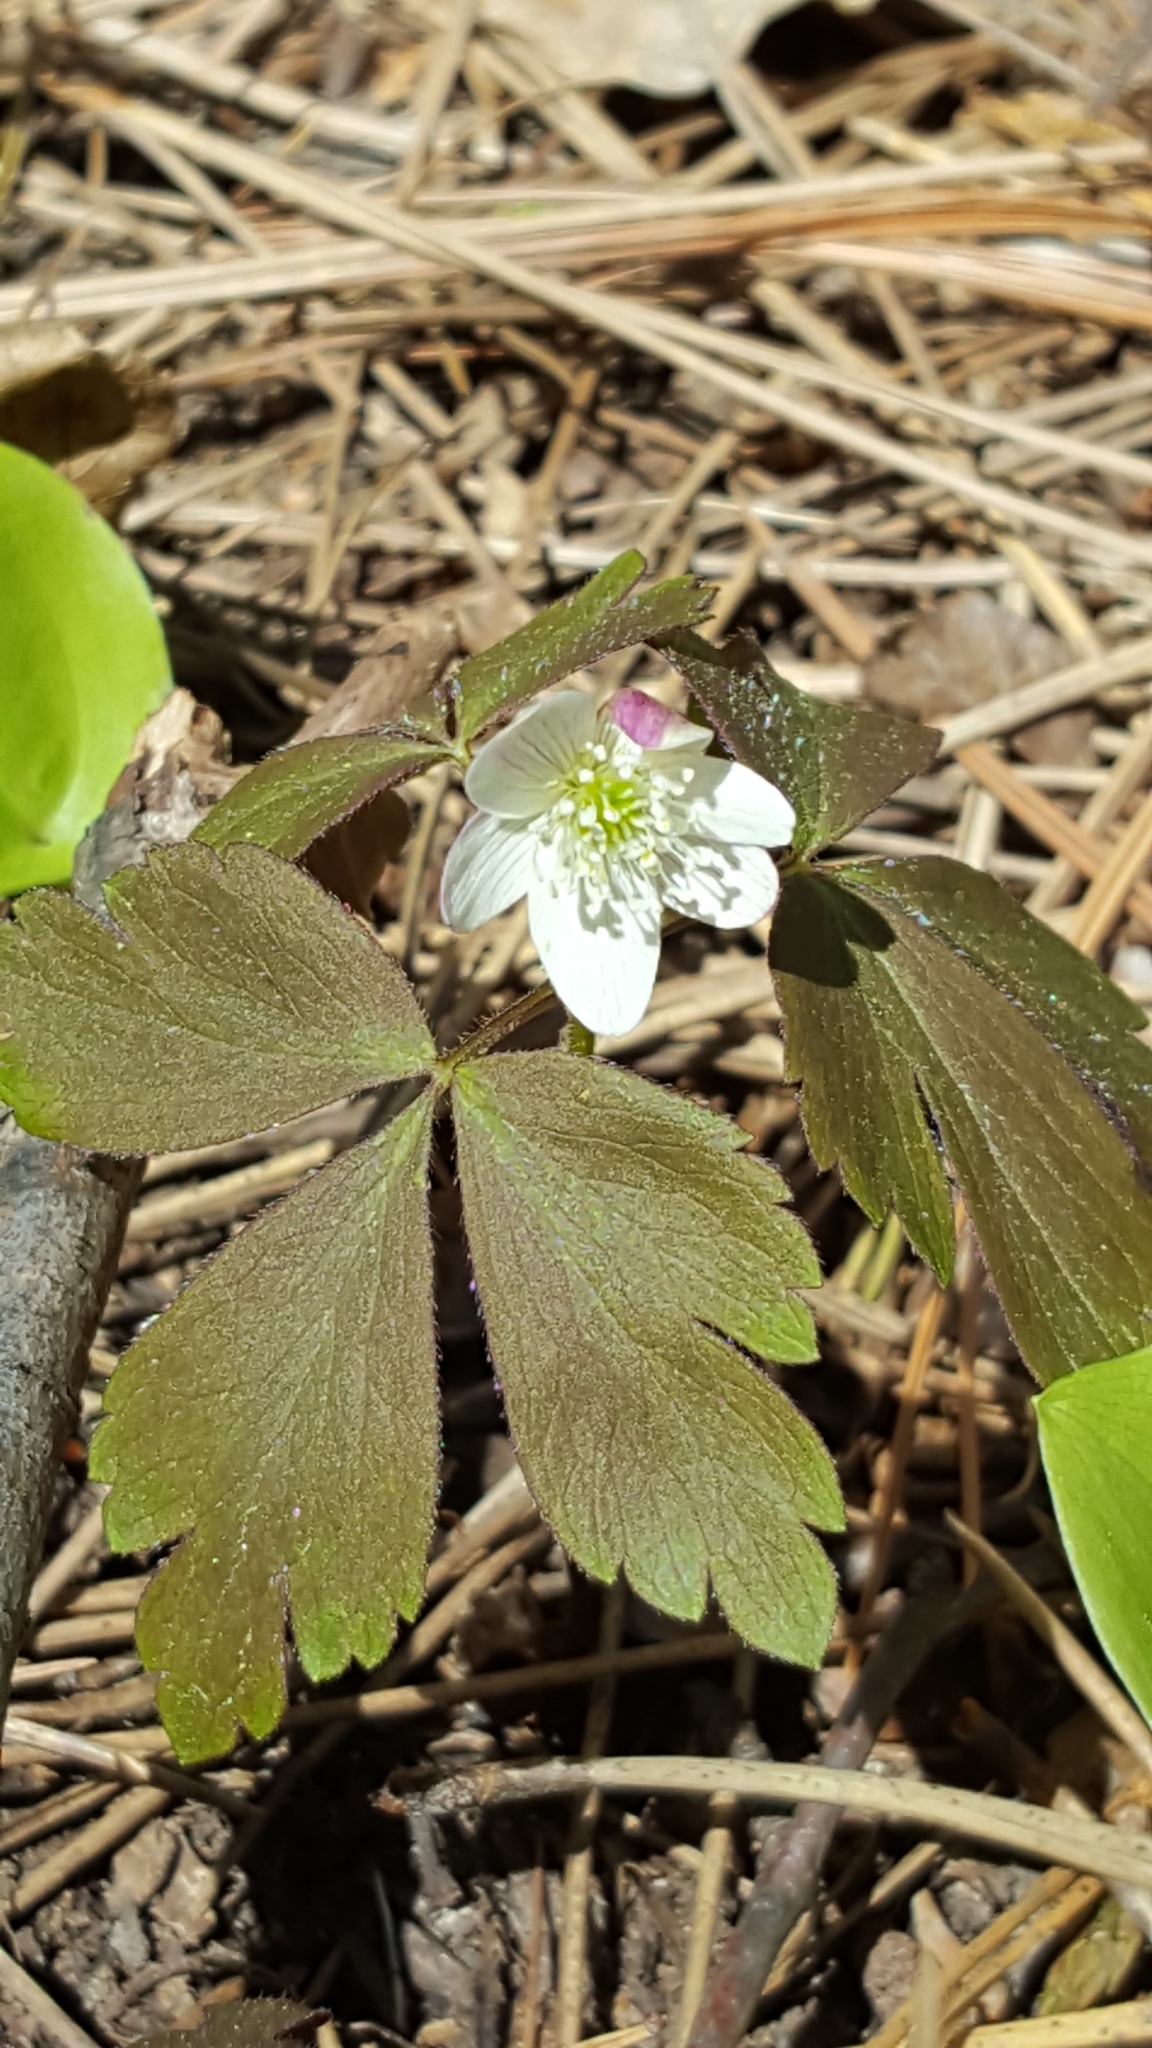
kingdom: Plantae
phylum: Tracheophyta
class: Magnoliopsida
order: Ranunculales
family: Ranunculaceae
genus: Anemone
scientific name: Anemone quinquefolia
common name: Wood anemone
